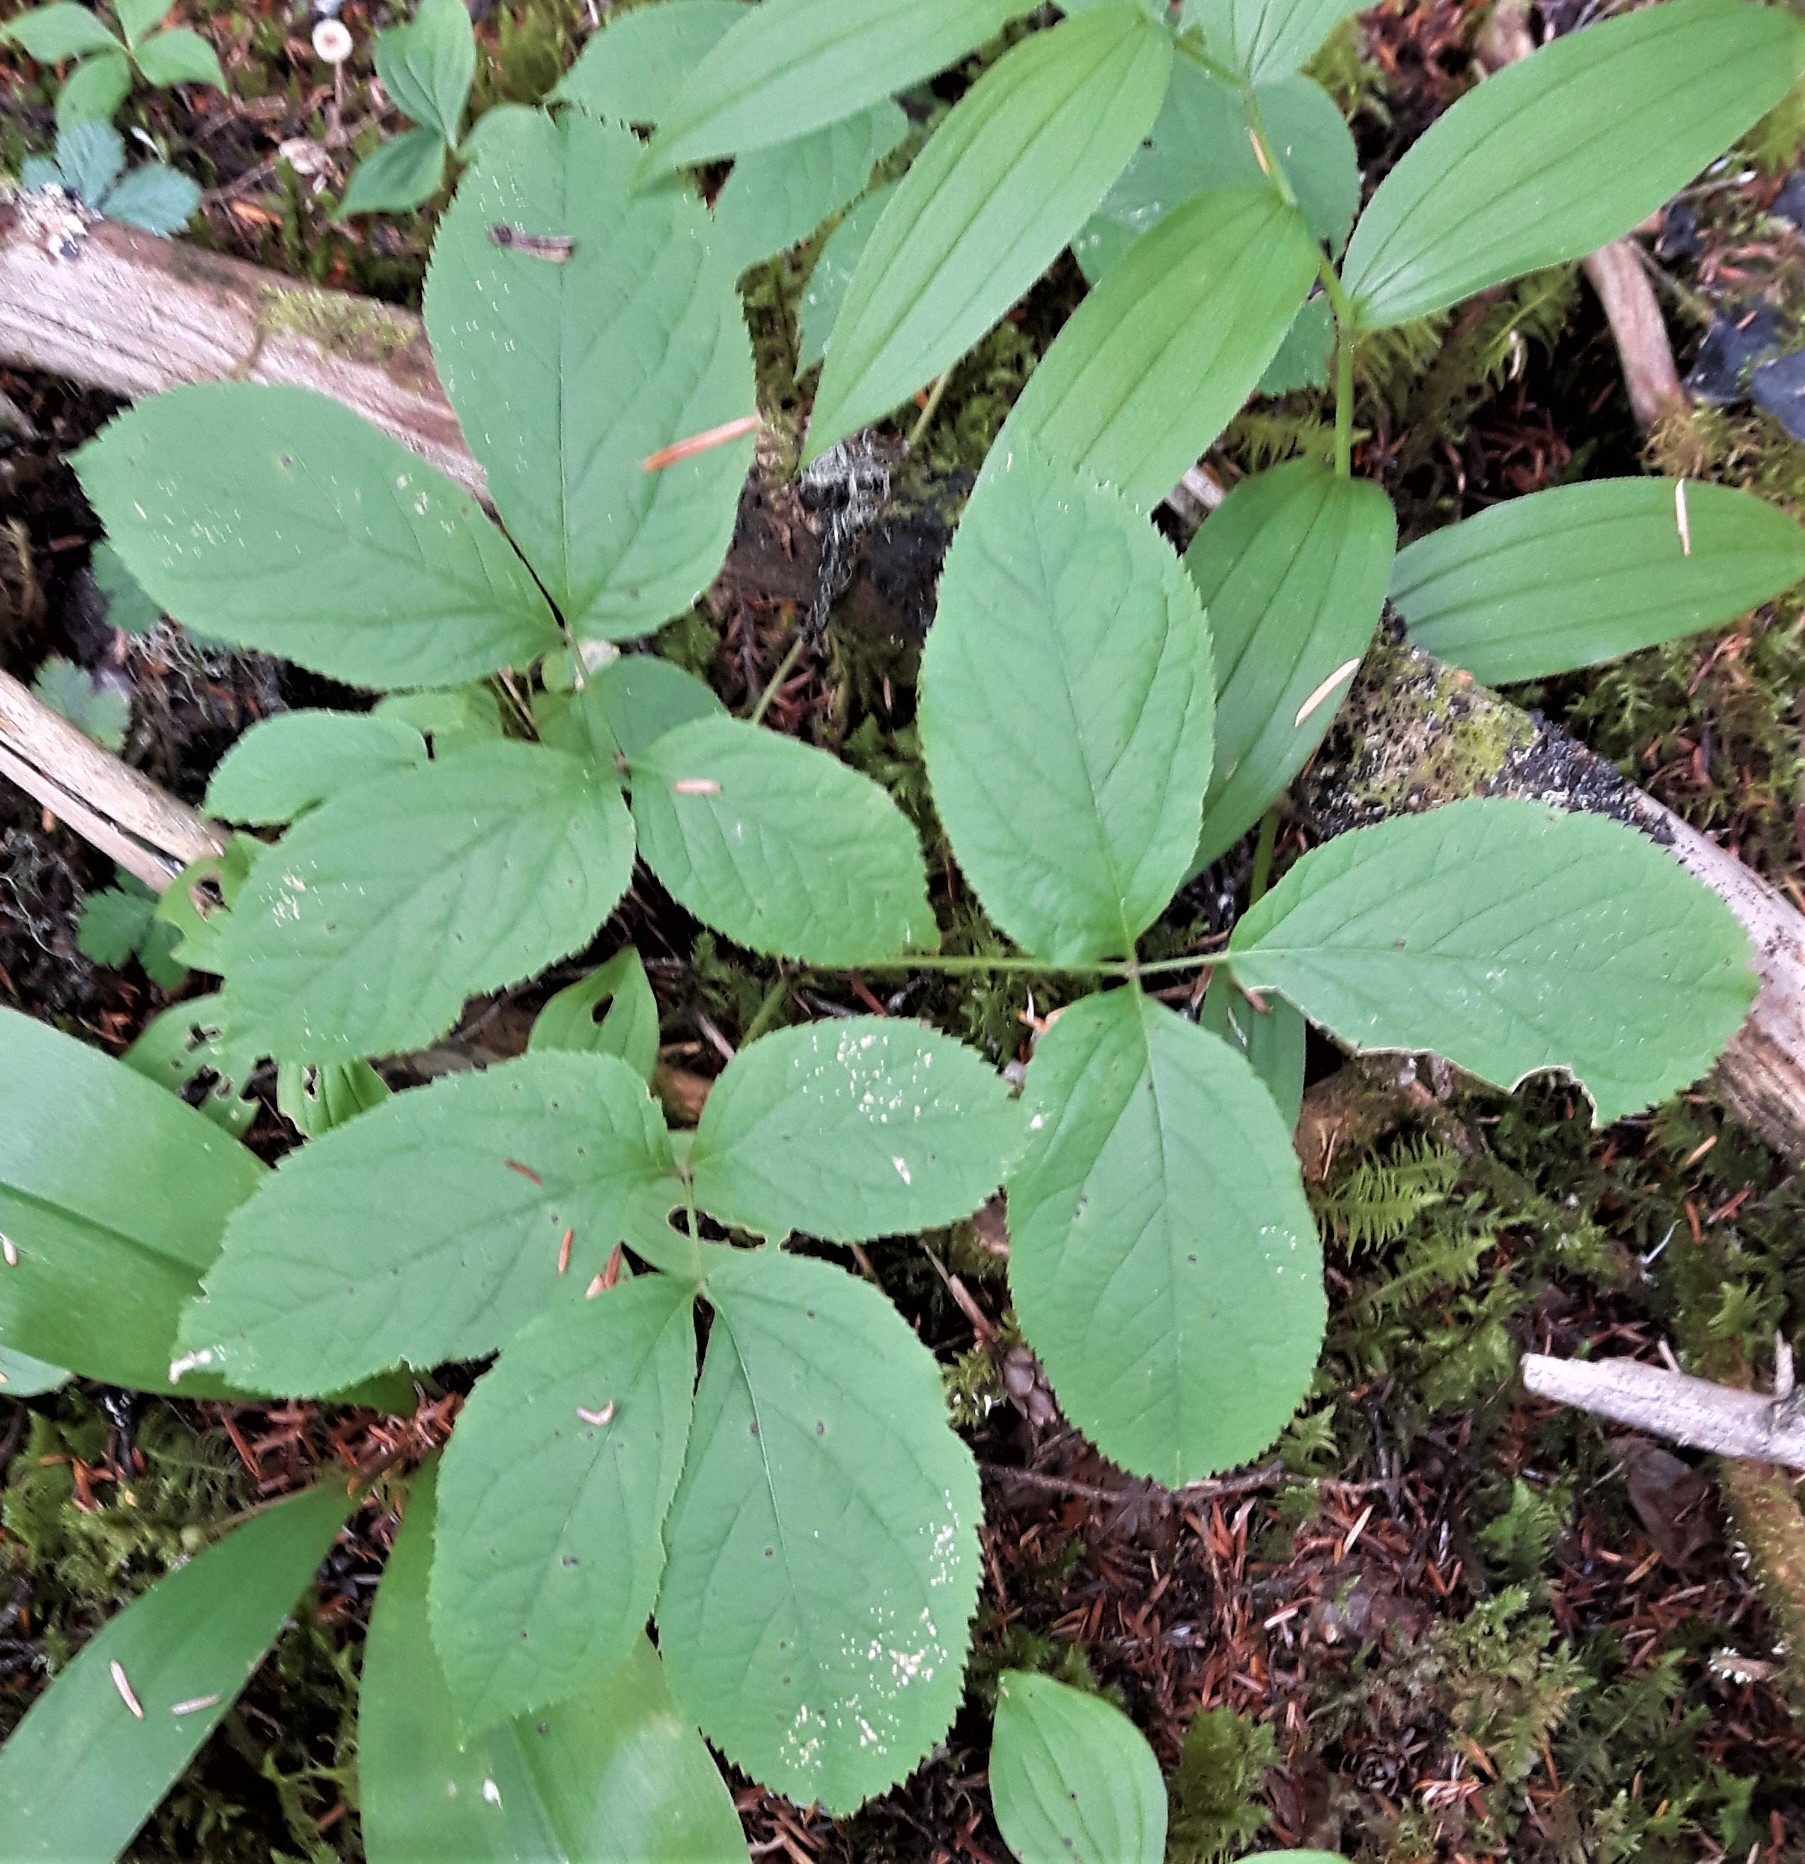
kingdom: Plantae
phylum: Tracheophyta
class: Magnoliopsida
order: Apiales
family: Araliaceae
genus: Aralia
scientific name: Aralia nudicaulis
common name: Wild sarsaparilla
